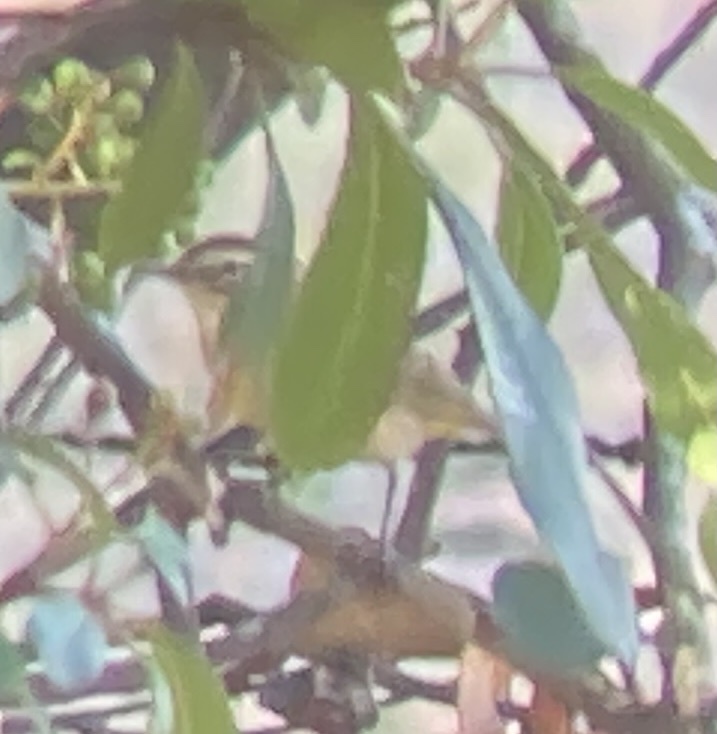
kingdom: Animalia
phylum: Chordata
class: Aves
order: Passeriformes
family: Parulidae
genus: Setophaga
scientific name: Setophaga palmarum
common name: Palm warbler
